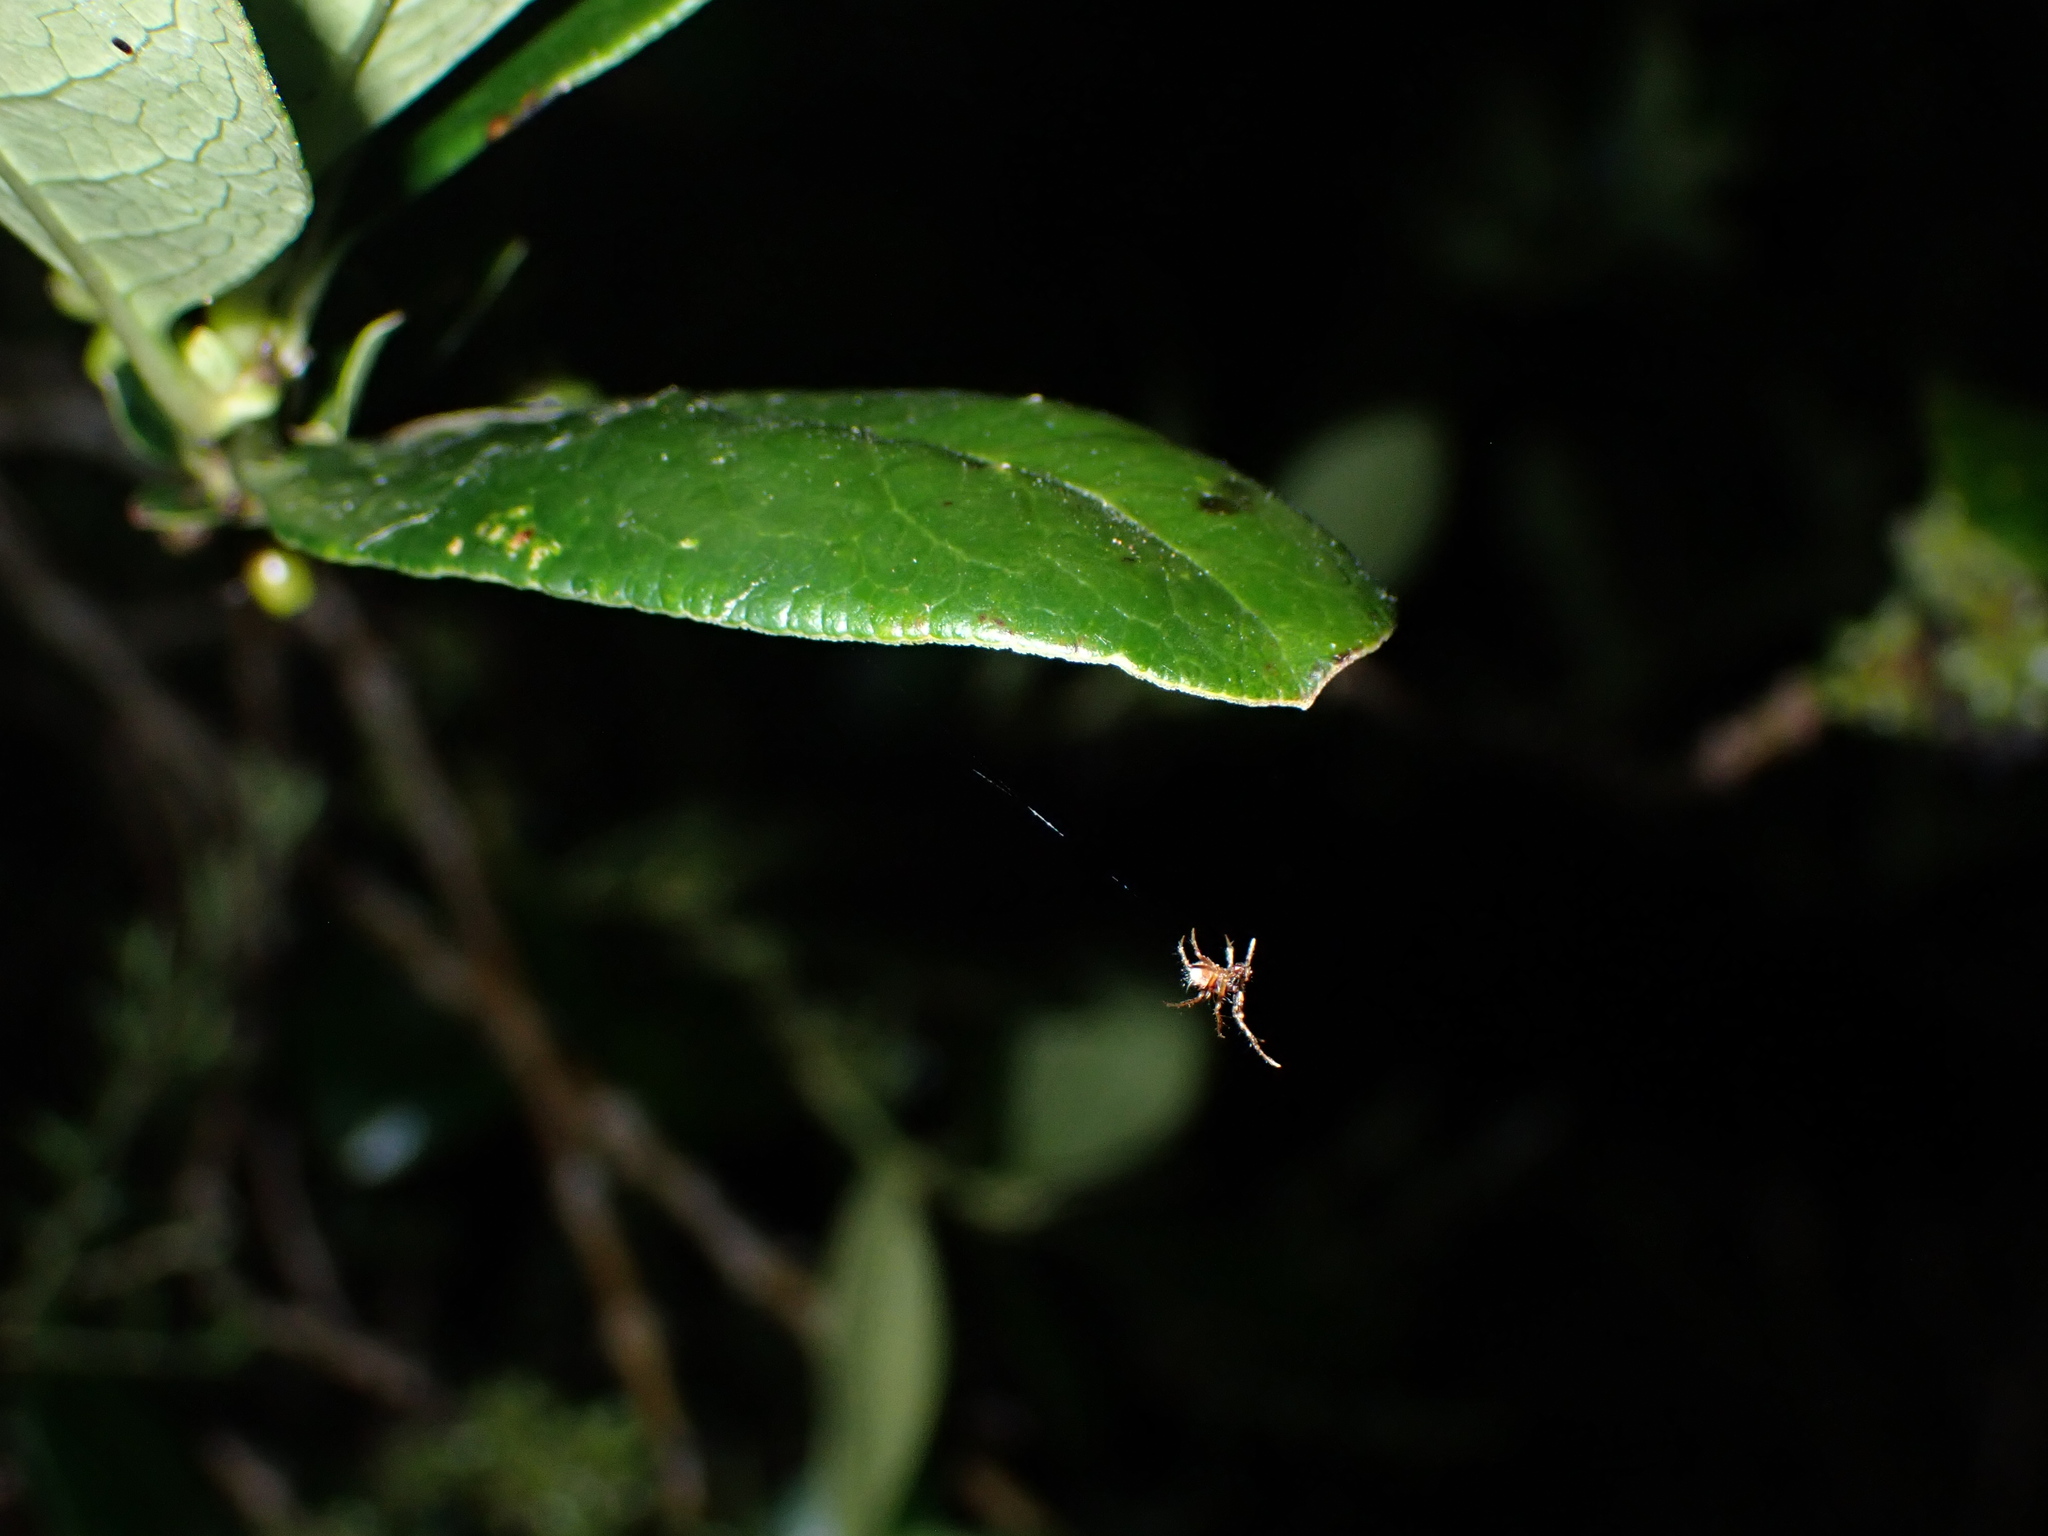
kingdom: Animalia
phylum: Arthropoda
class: Arachnida
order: Araneae
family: Araneidae
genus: Poecilopachys
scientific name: Poecilopachys australasia
